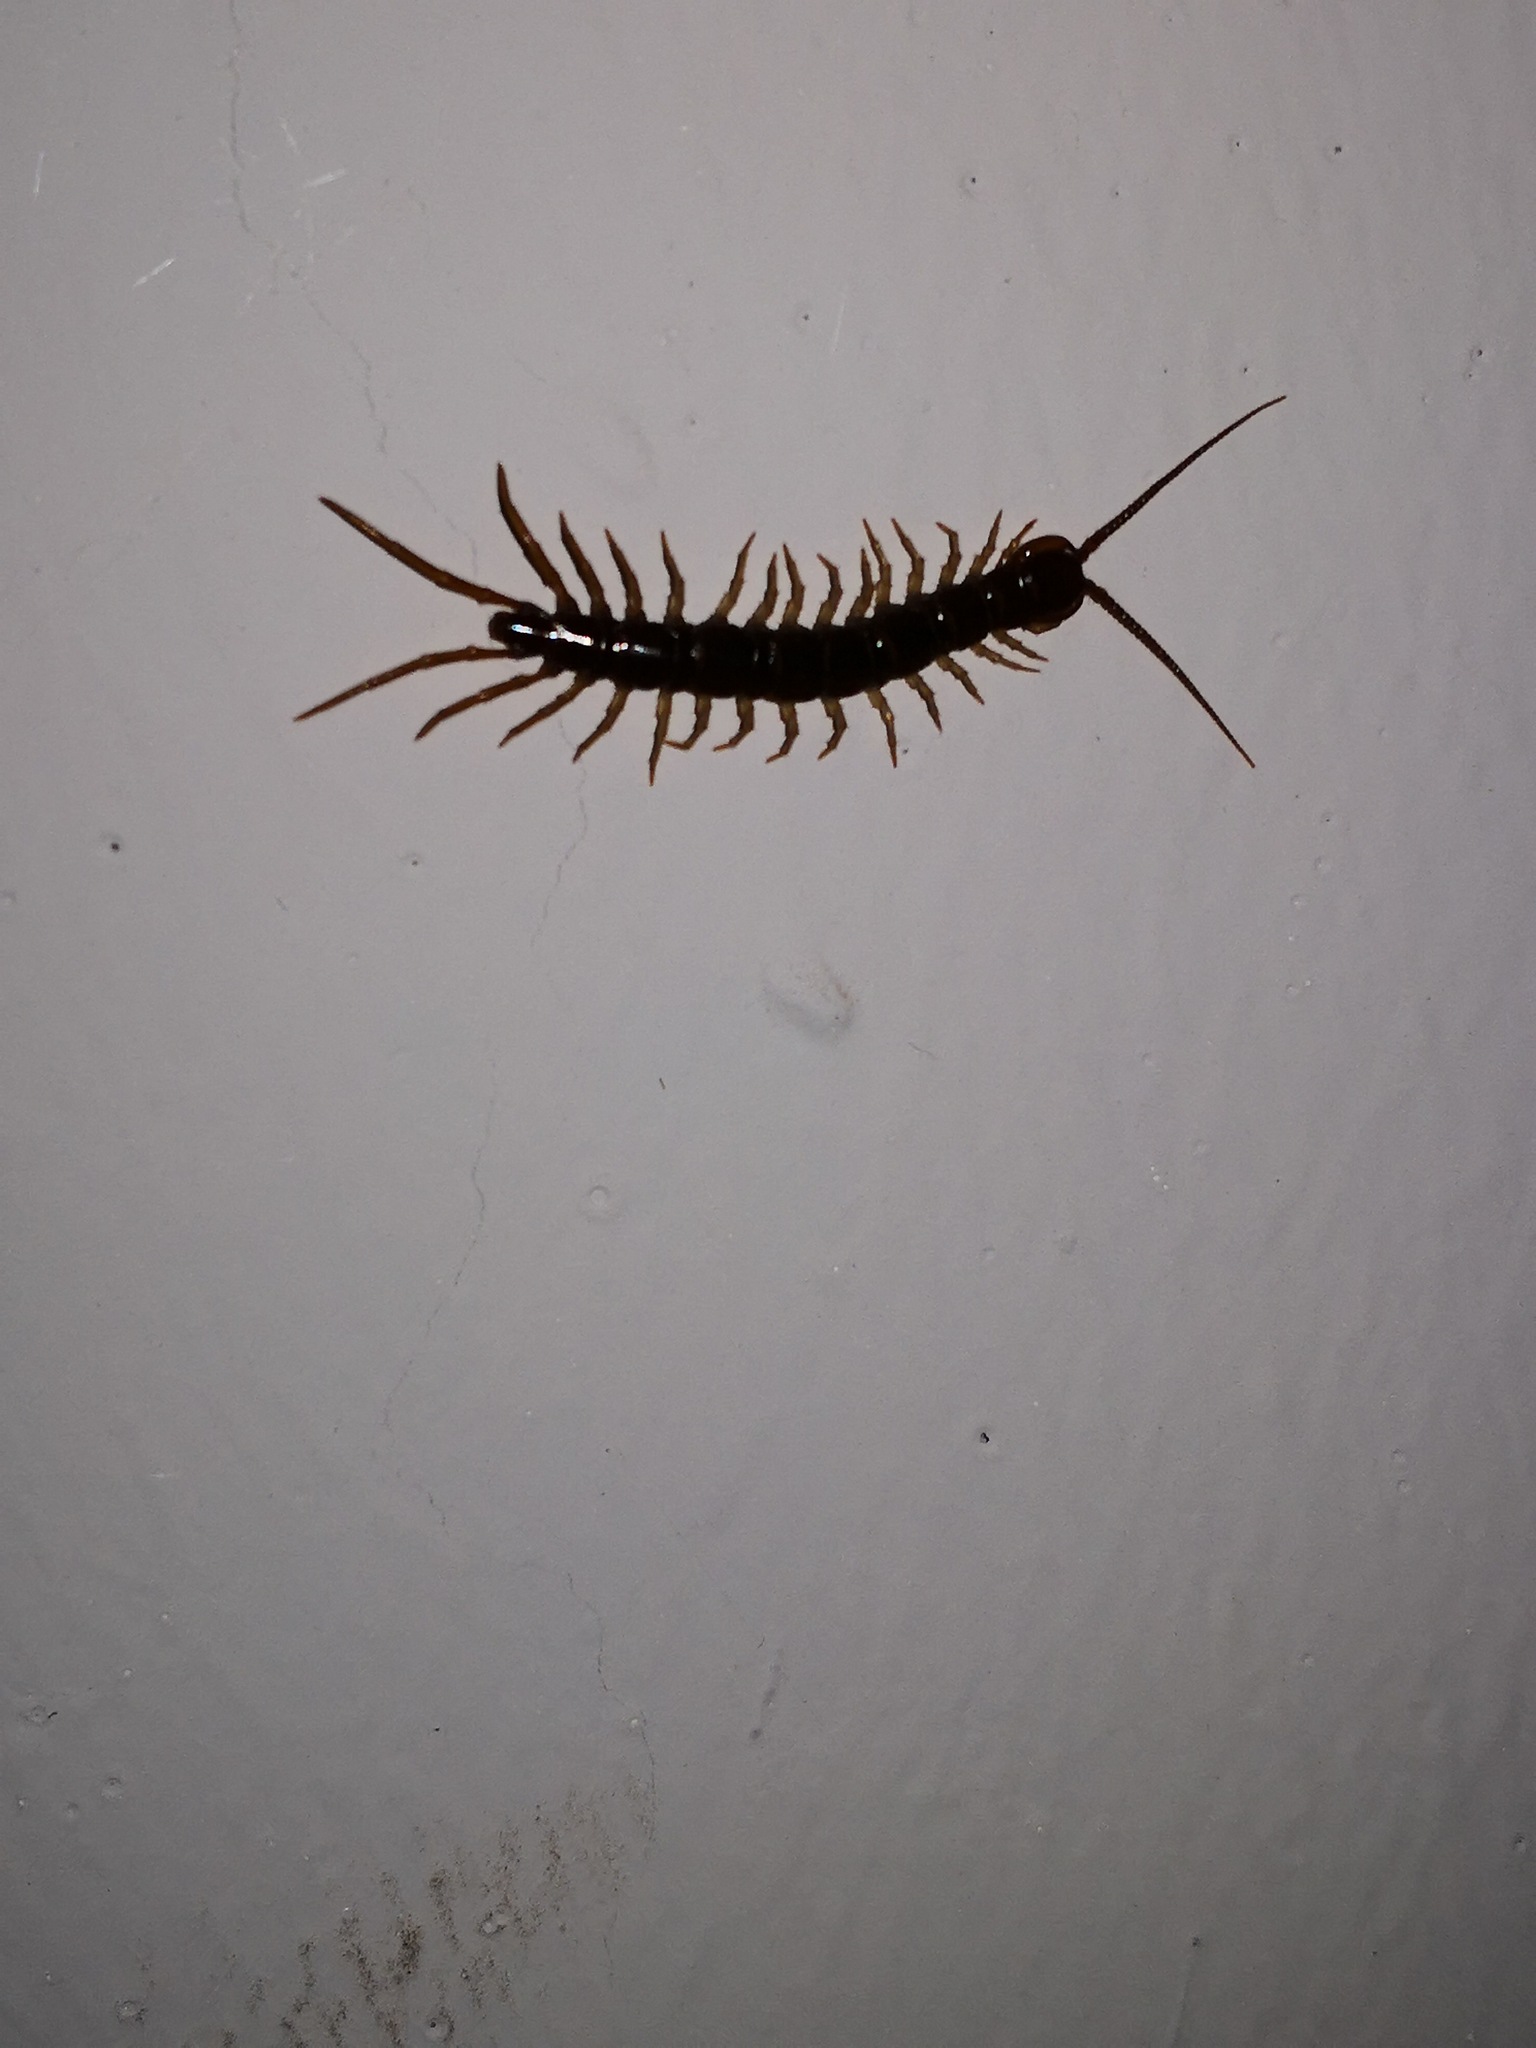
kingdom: Animalia
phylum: Arthropoda
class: Chilopoda
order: Lithobiomorpha
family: Lithobiidae
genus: Lithobius
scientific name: Lithobius forficatus
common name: Centipede
